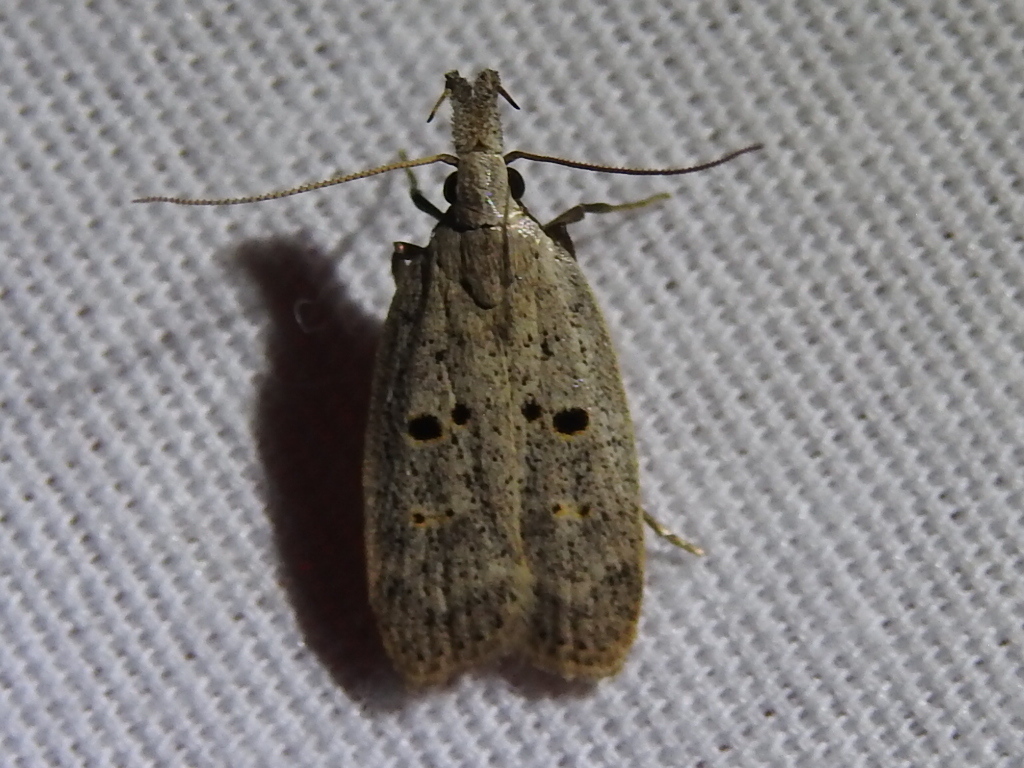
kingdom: Animalia
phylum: Arthropoda
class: Insecta
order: Lepidoptera
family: Gelechiidae
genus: Dichomeris
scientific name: Dichomeris glenni
